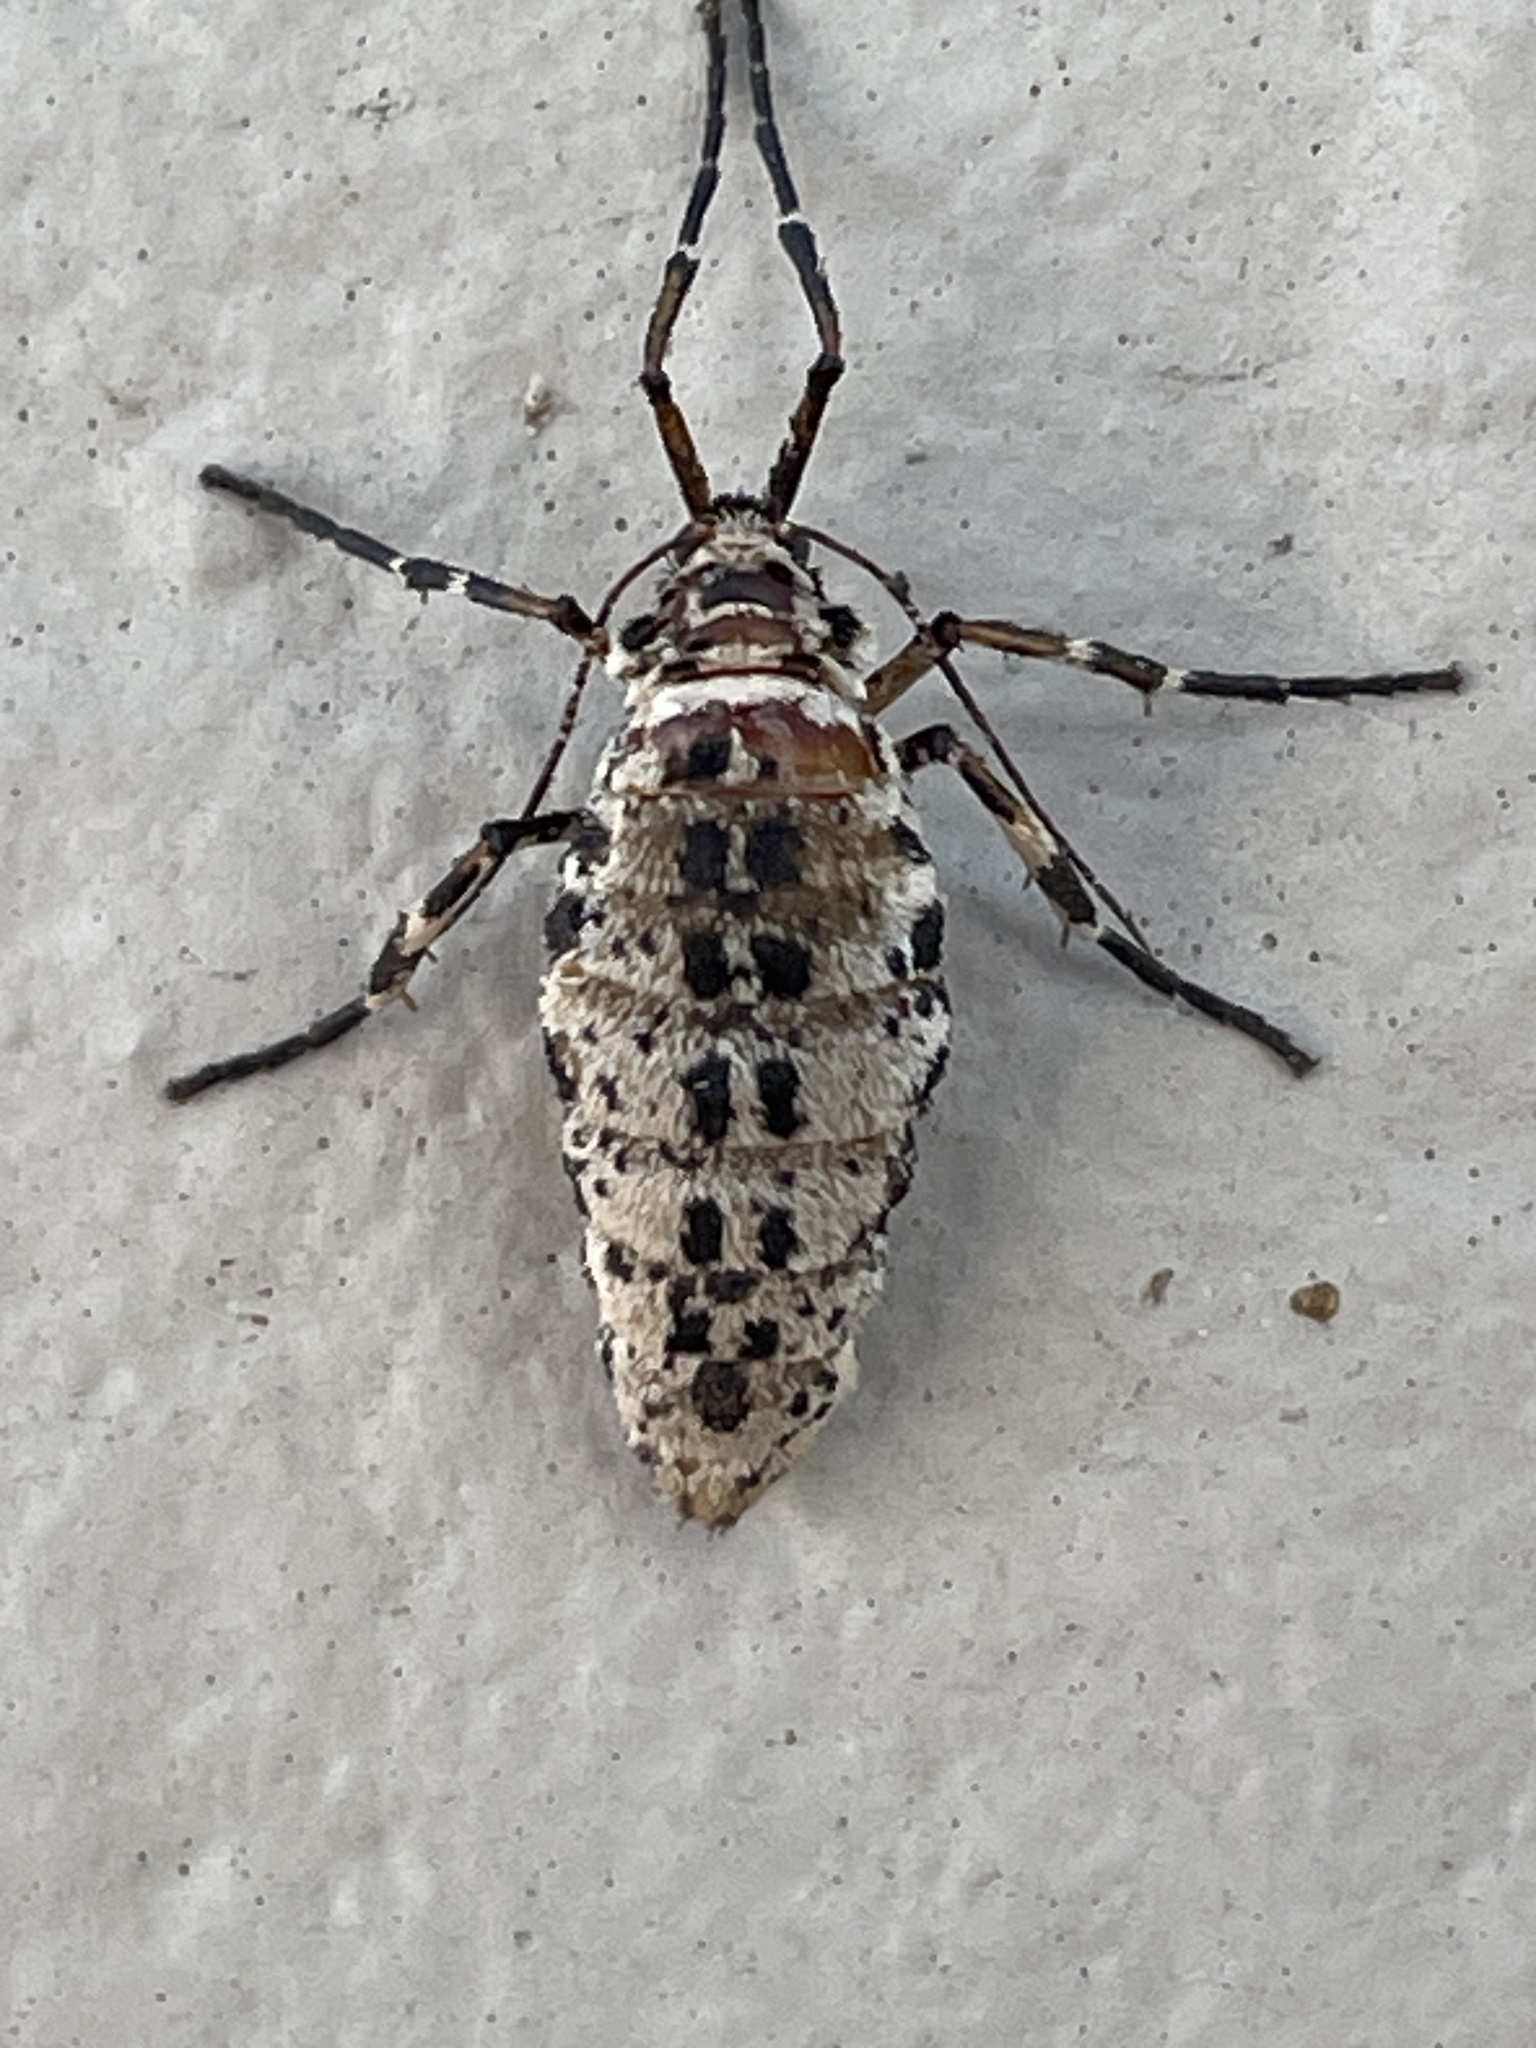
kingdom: Animalia
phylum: Arthropoda
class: Insecta
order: Lepidoptera
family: Geometridae
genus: Erannis
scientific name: Erannis tiliaria
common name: Linden looper
